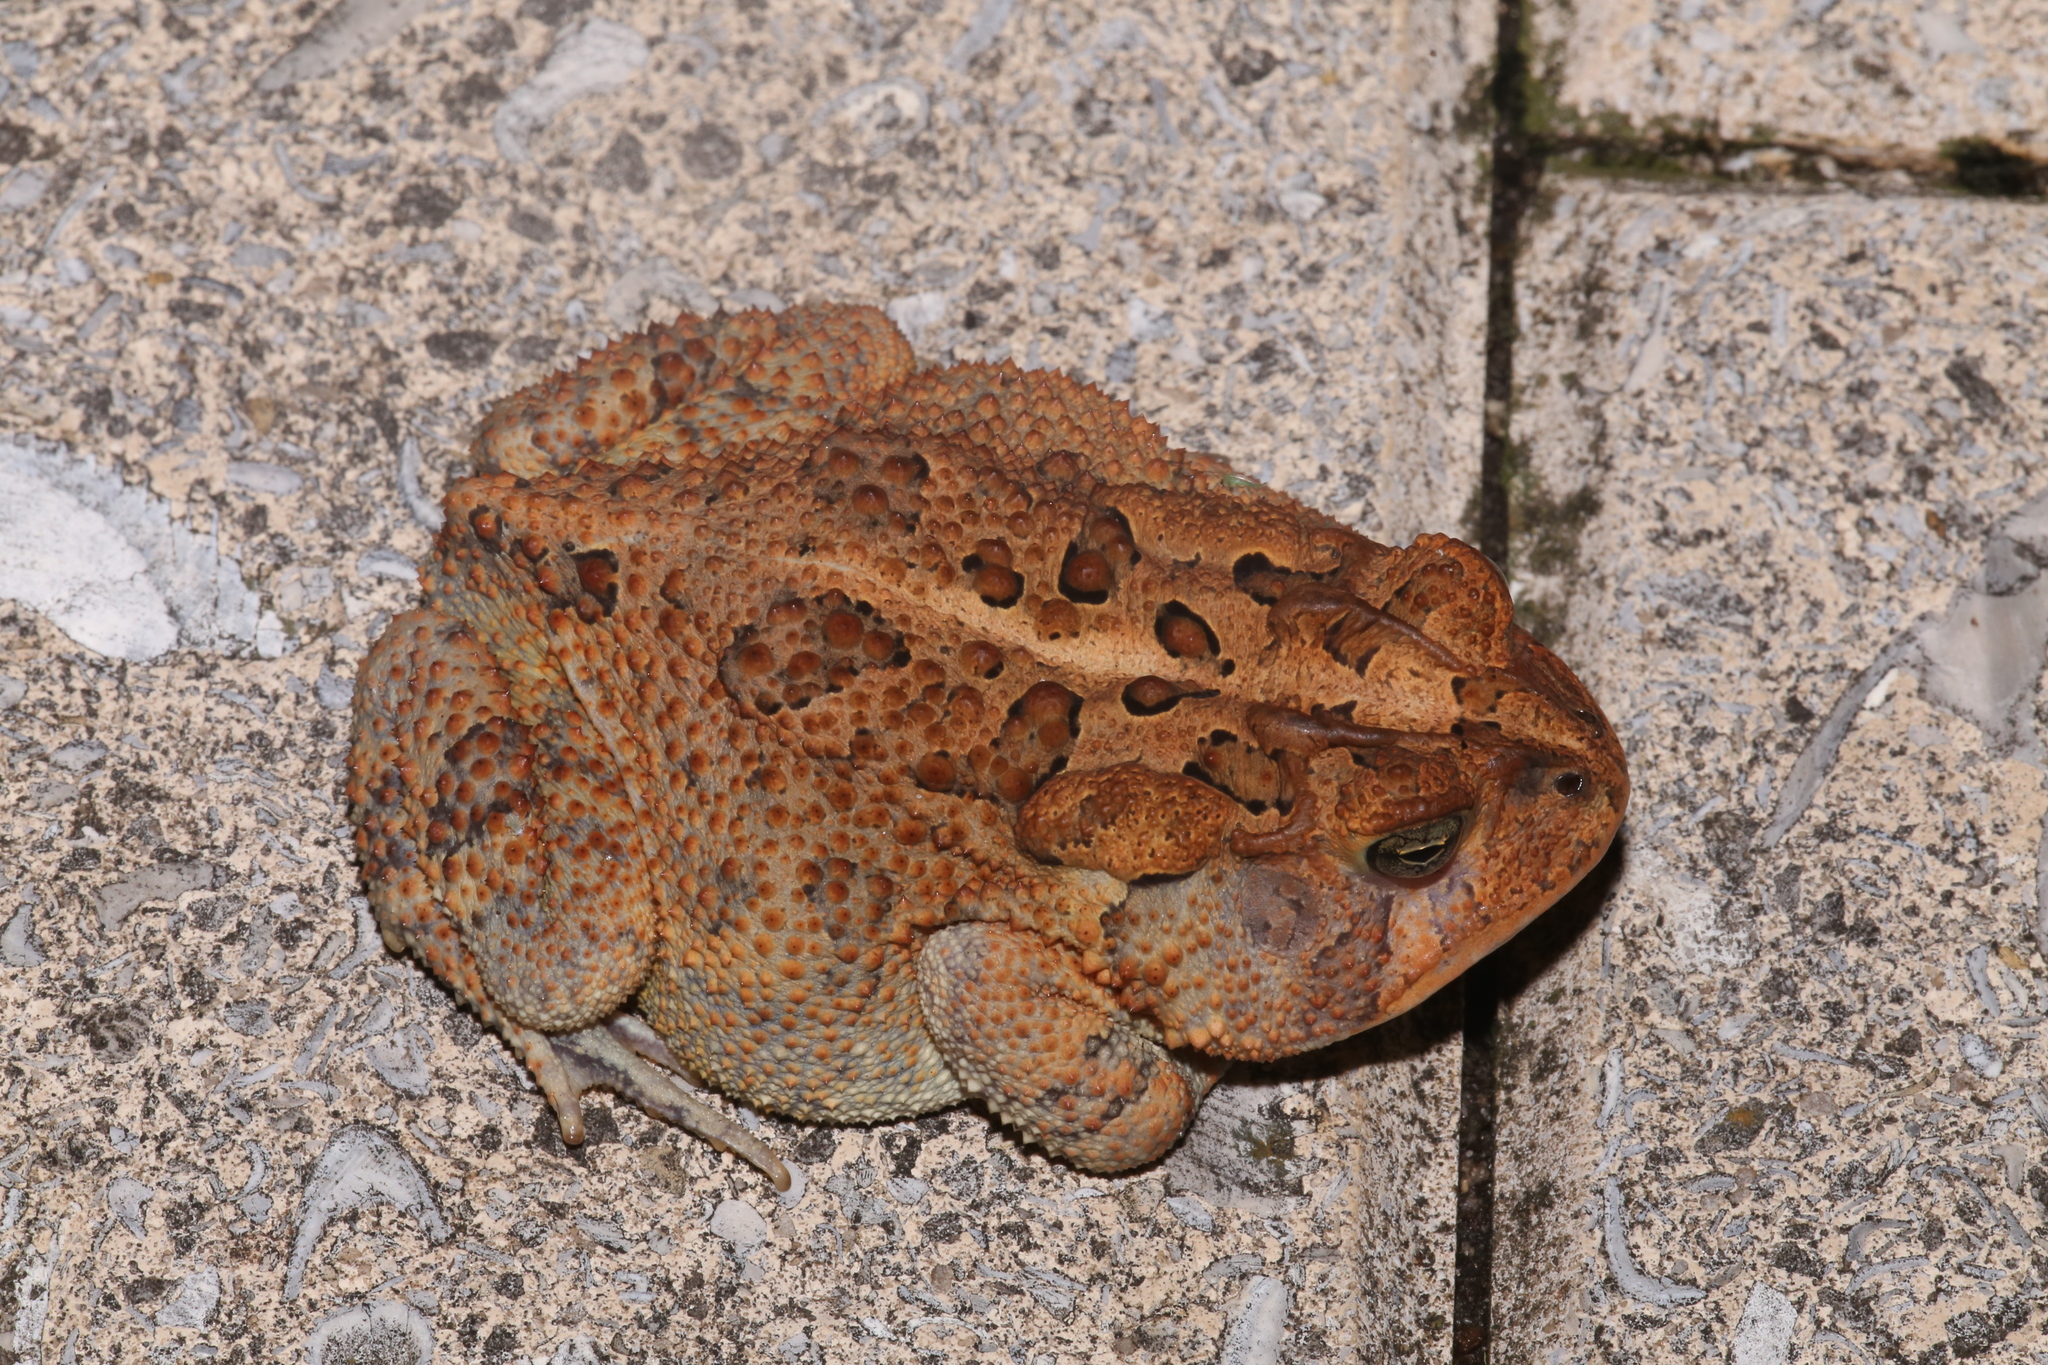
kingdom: Animalia
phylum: Chordata
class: Amphibia
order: Anura
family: Bufonidae
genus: Anaxyrus
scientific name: Anaxyrus terrestris
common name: Southern toad
